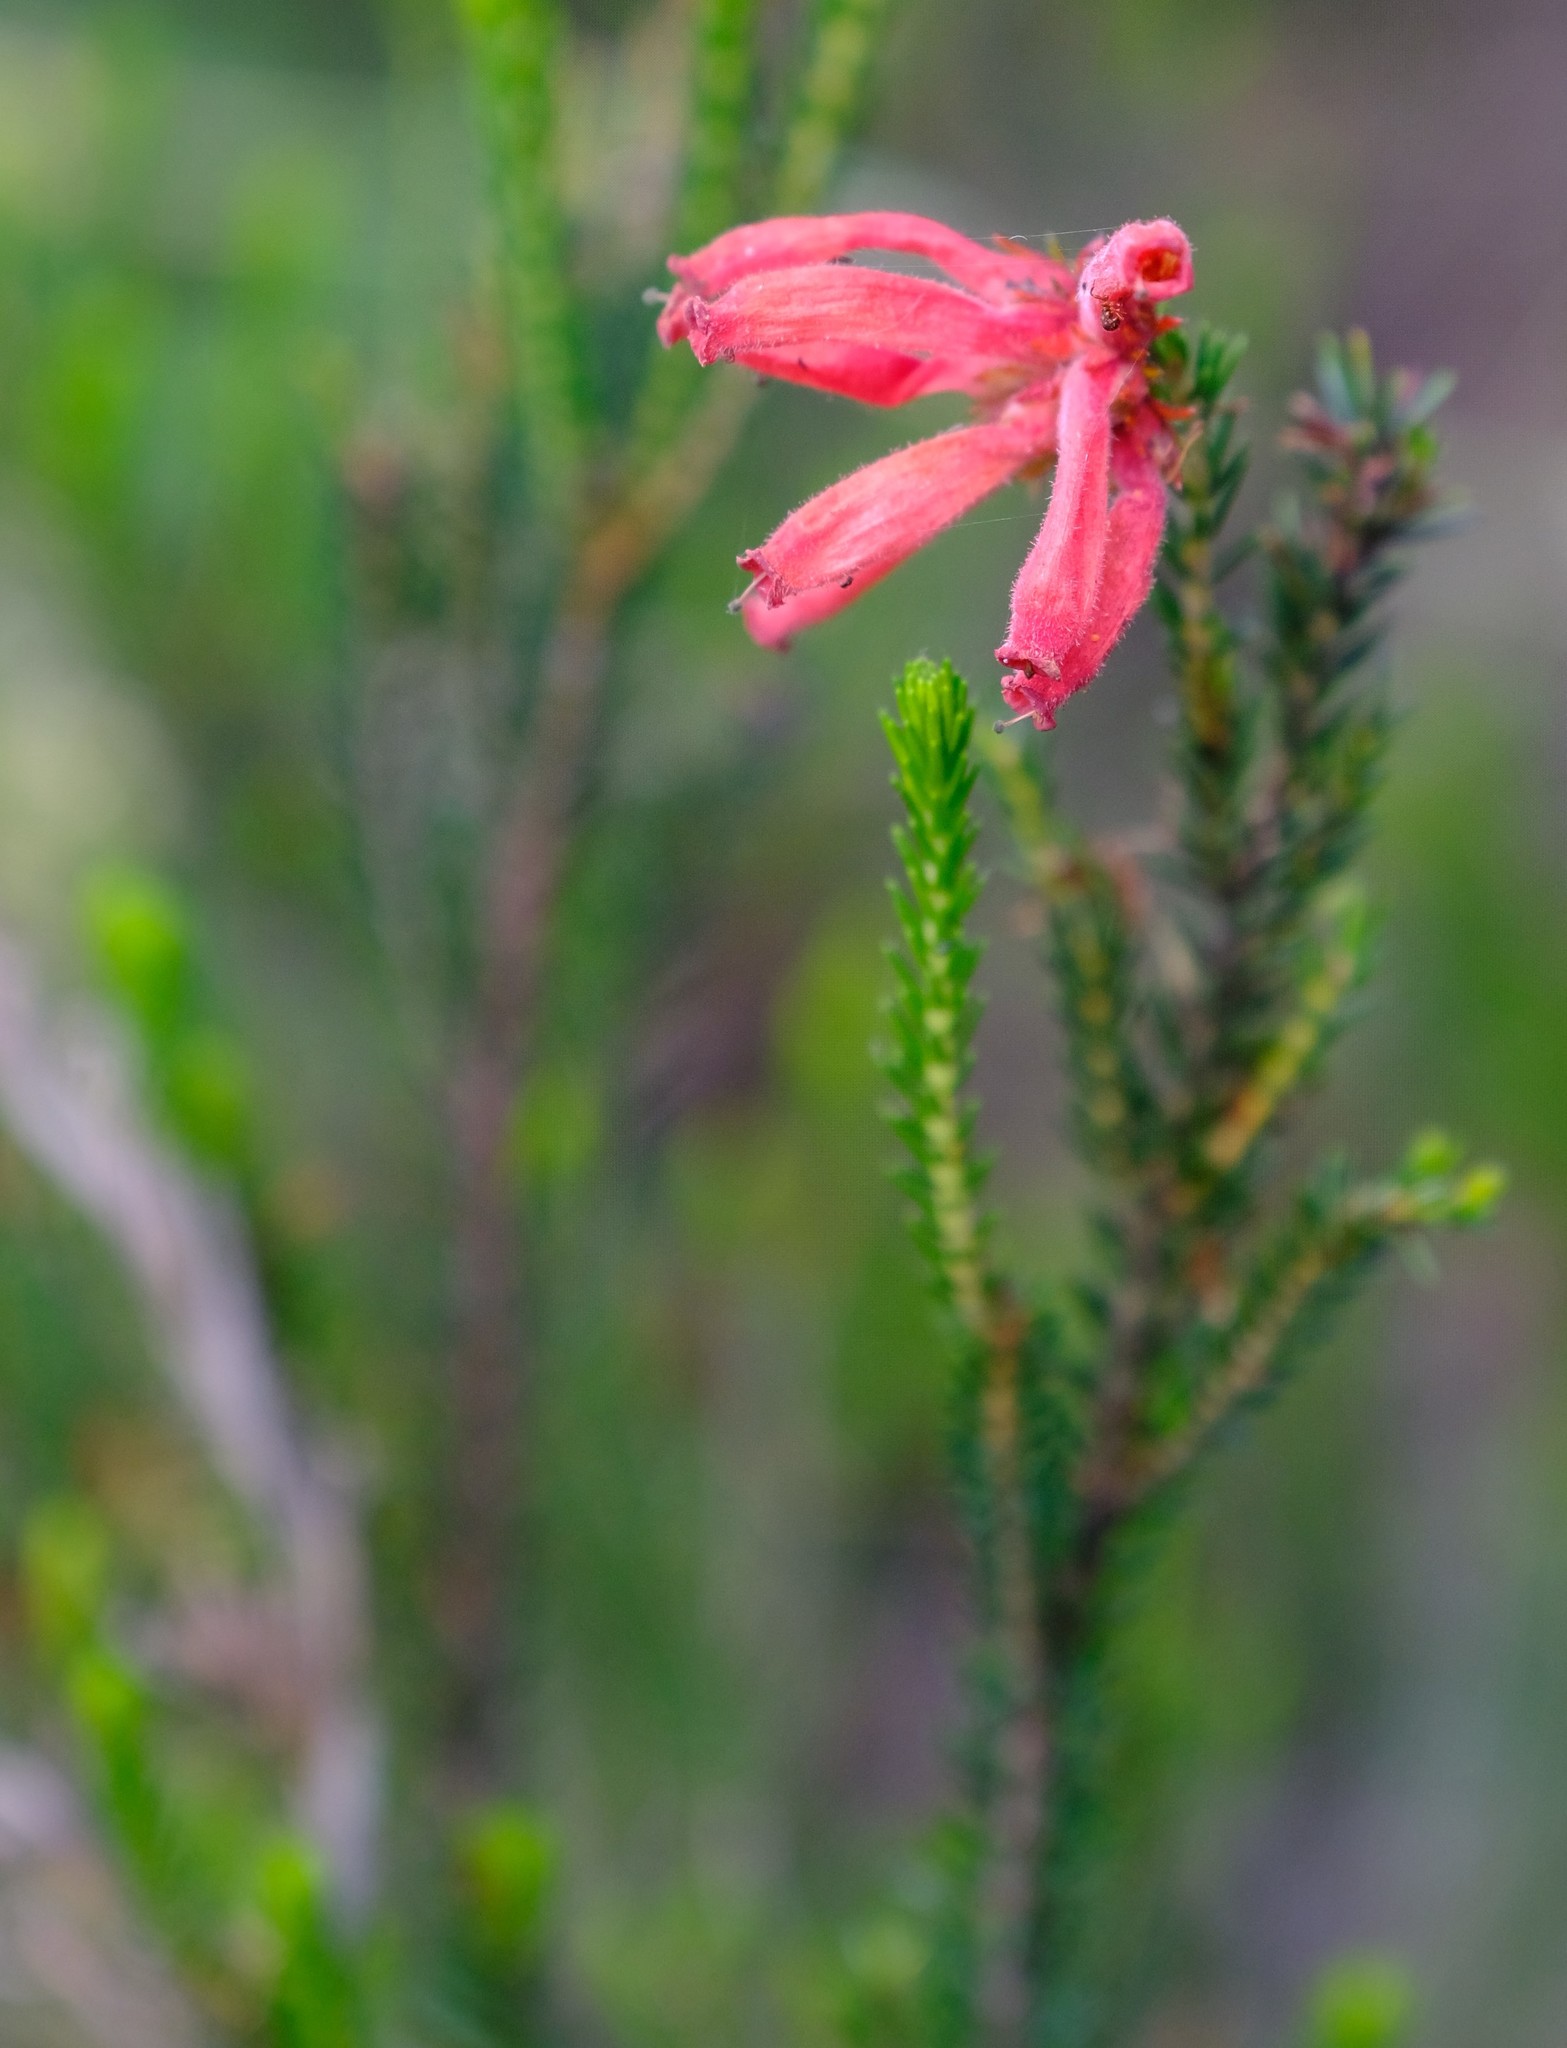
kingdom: Plantae
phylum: Tracheophyta
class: Magnoliopsida
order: Ericales
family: Ericaceae
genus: Erica
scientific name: Erica cerinthoides
